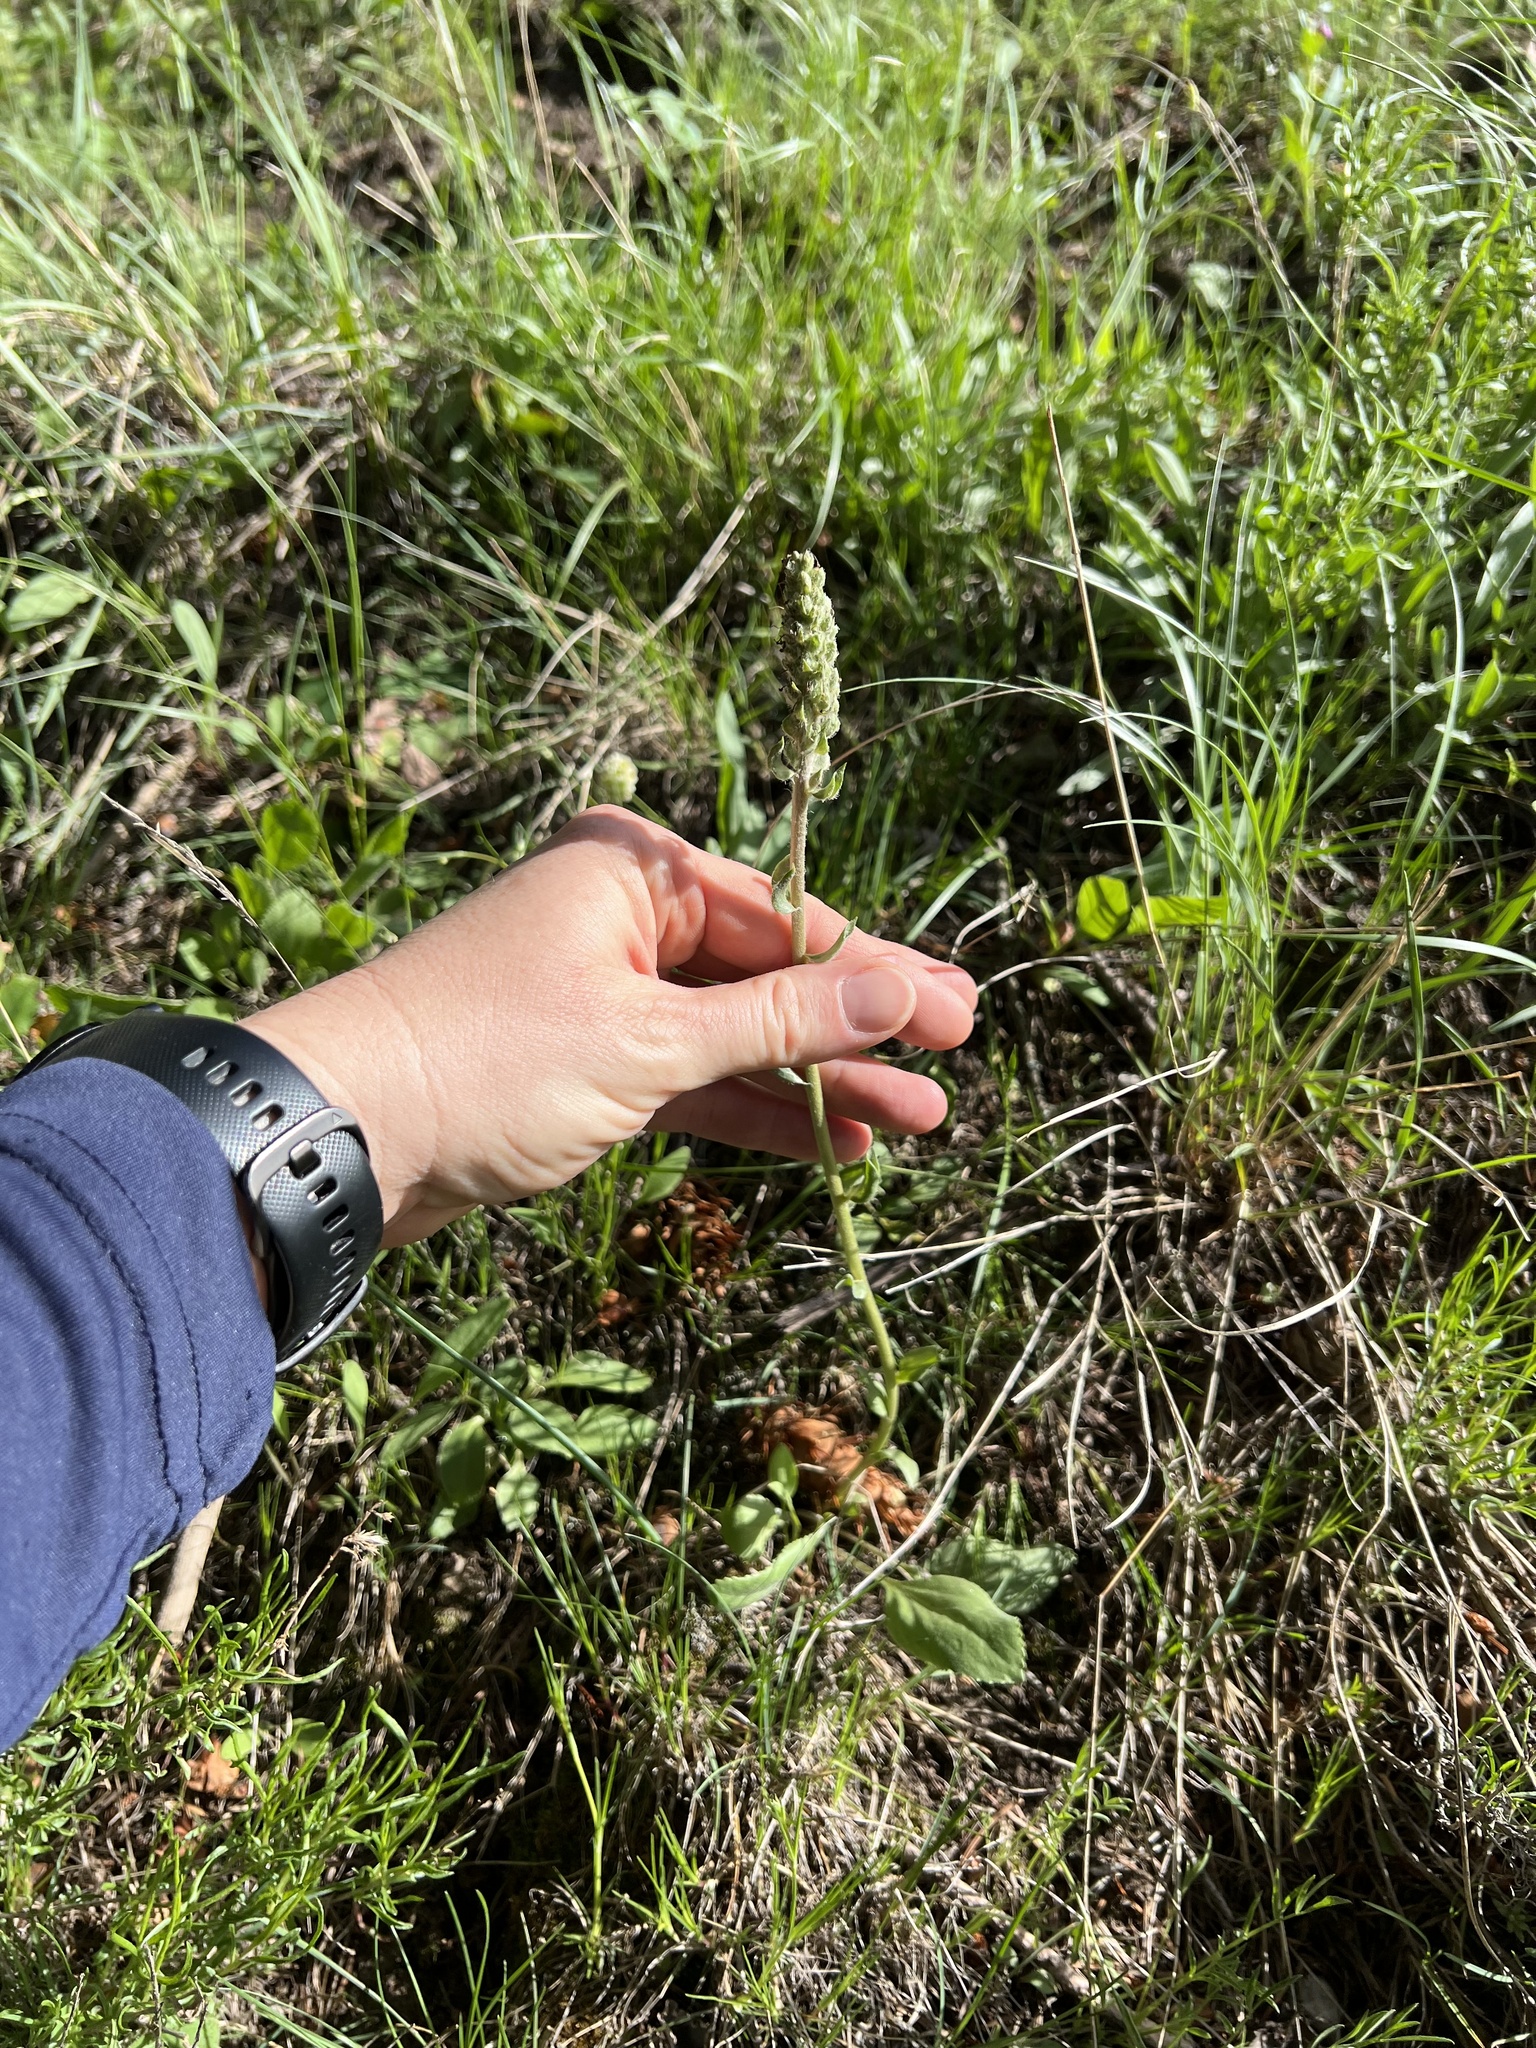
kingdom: Plantae
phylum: Tracheophyta
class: Magnoliopsida
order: Lamiales
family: Plantaginaceae
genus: Synthyris
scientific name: Synthyris wyomingensis
